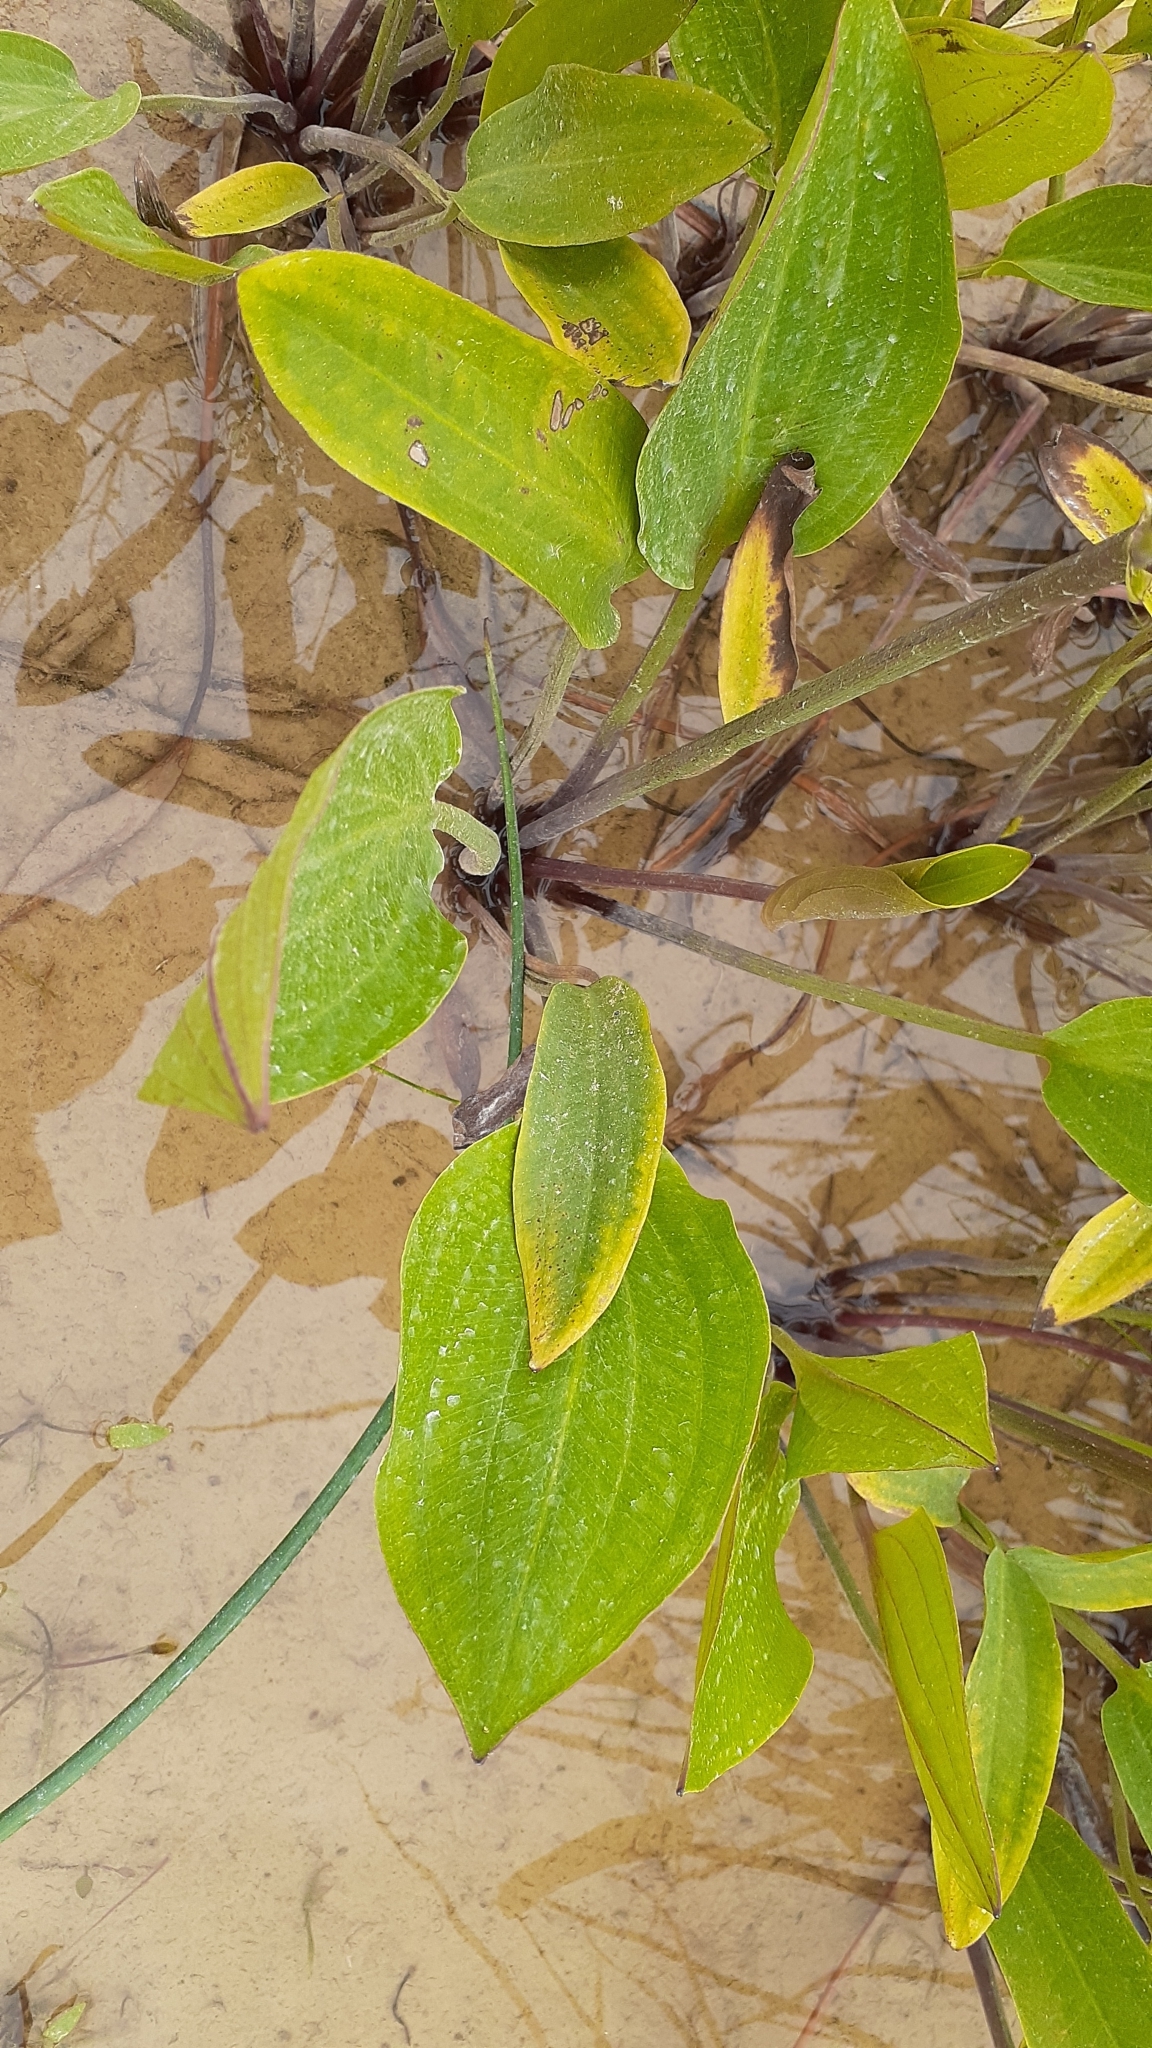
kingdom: Plantae
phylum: Tracheophyta
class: Liliopsida
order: Alismatales
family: Alismataceae
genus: Alisma
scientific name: Alisma triviale
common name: Northern water-plantain
